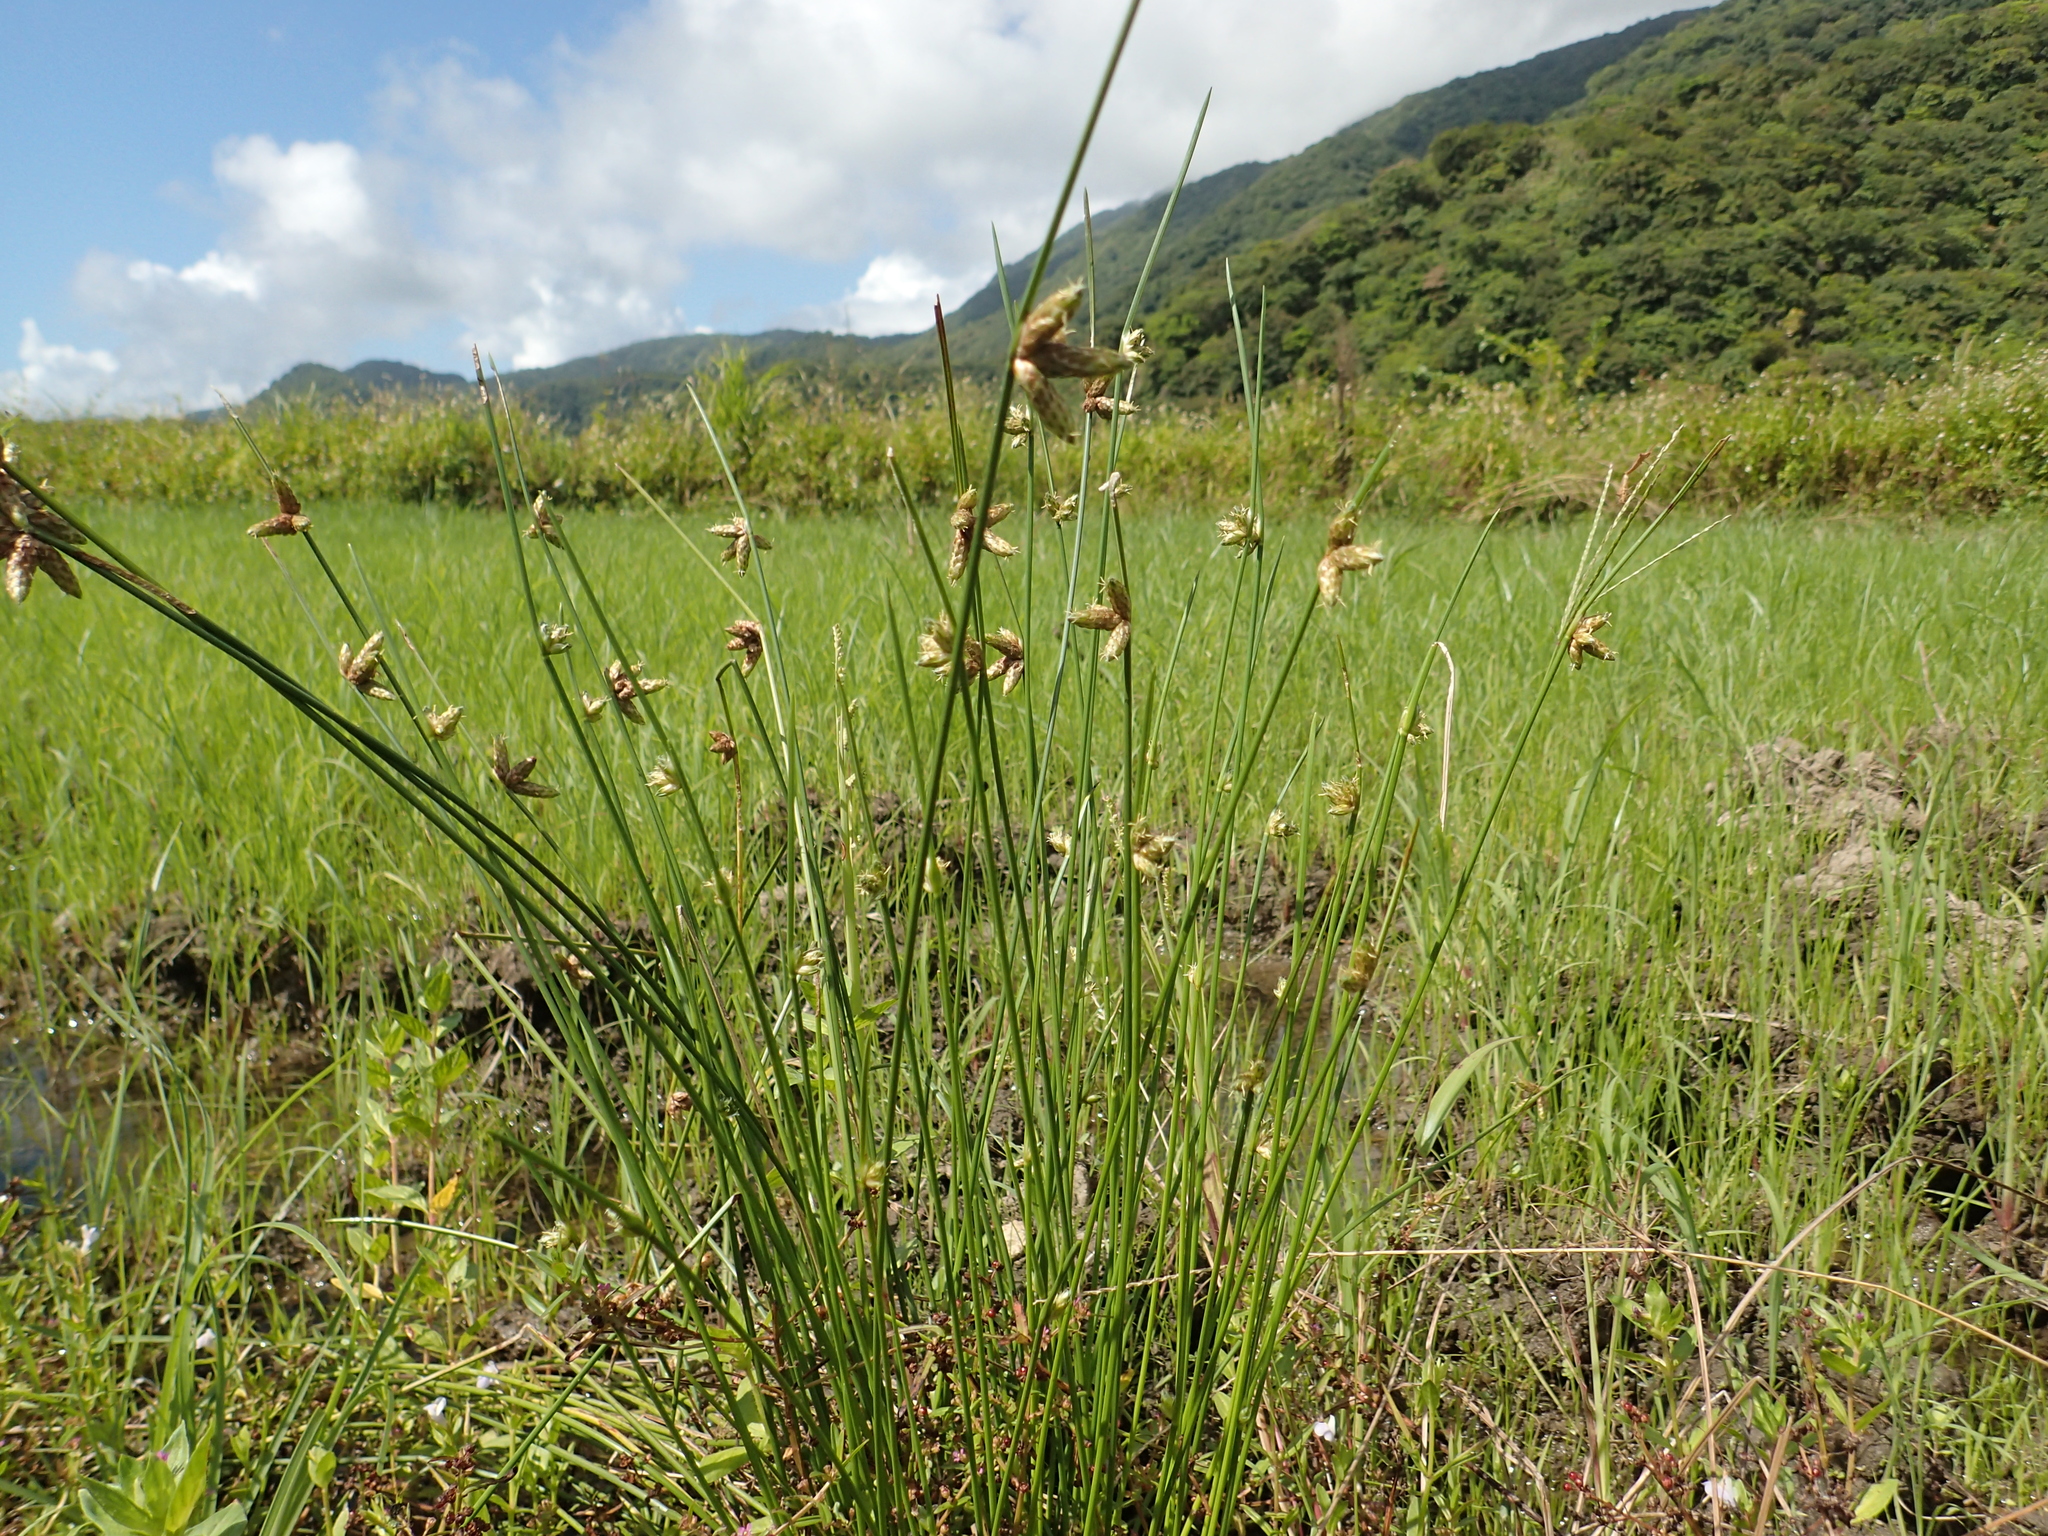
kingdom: Plantae
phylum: Tracheophyta
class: Liliopsida
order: Poales
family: Cyperaceae
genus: Schoenoplectiella
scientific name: Schoenoplectiella juncoides
